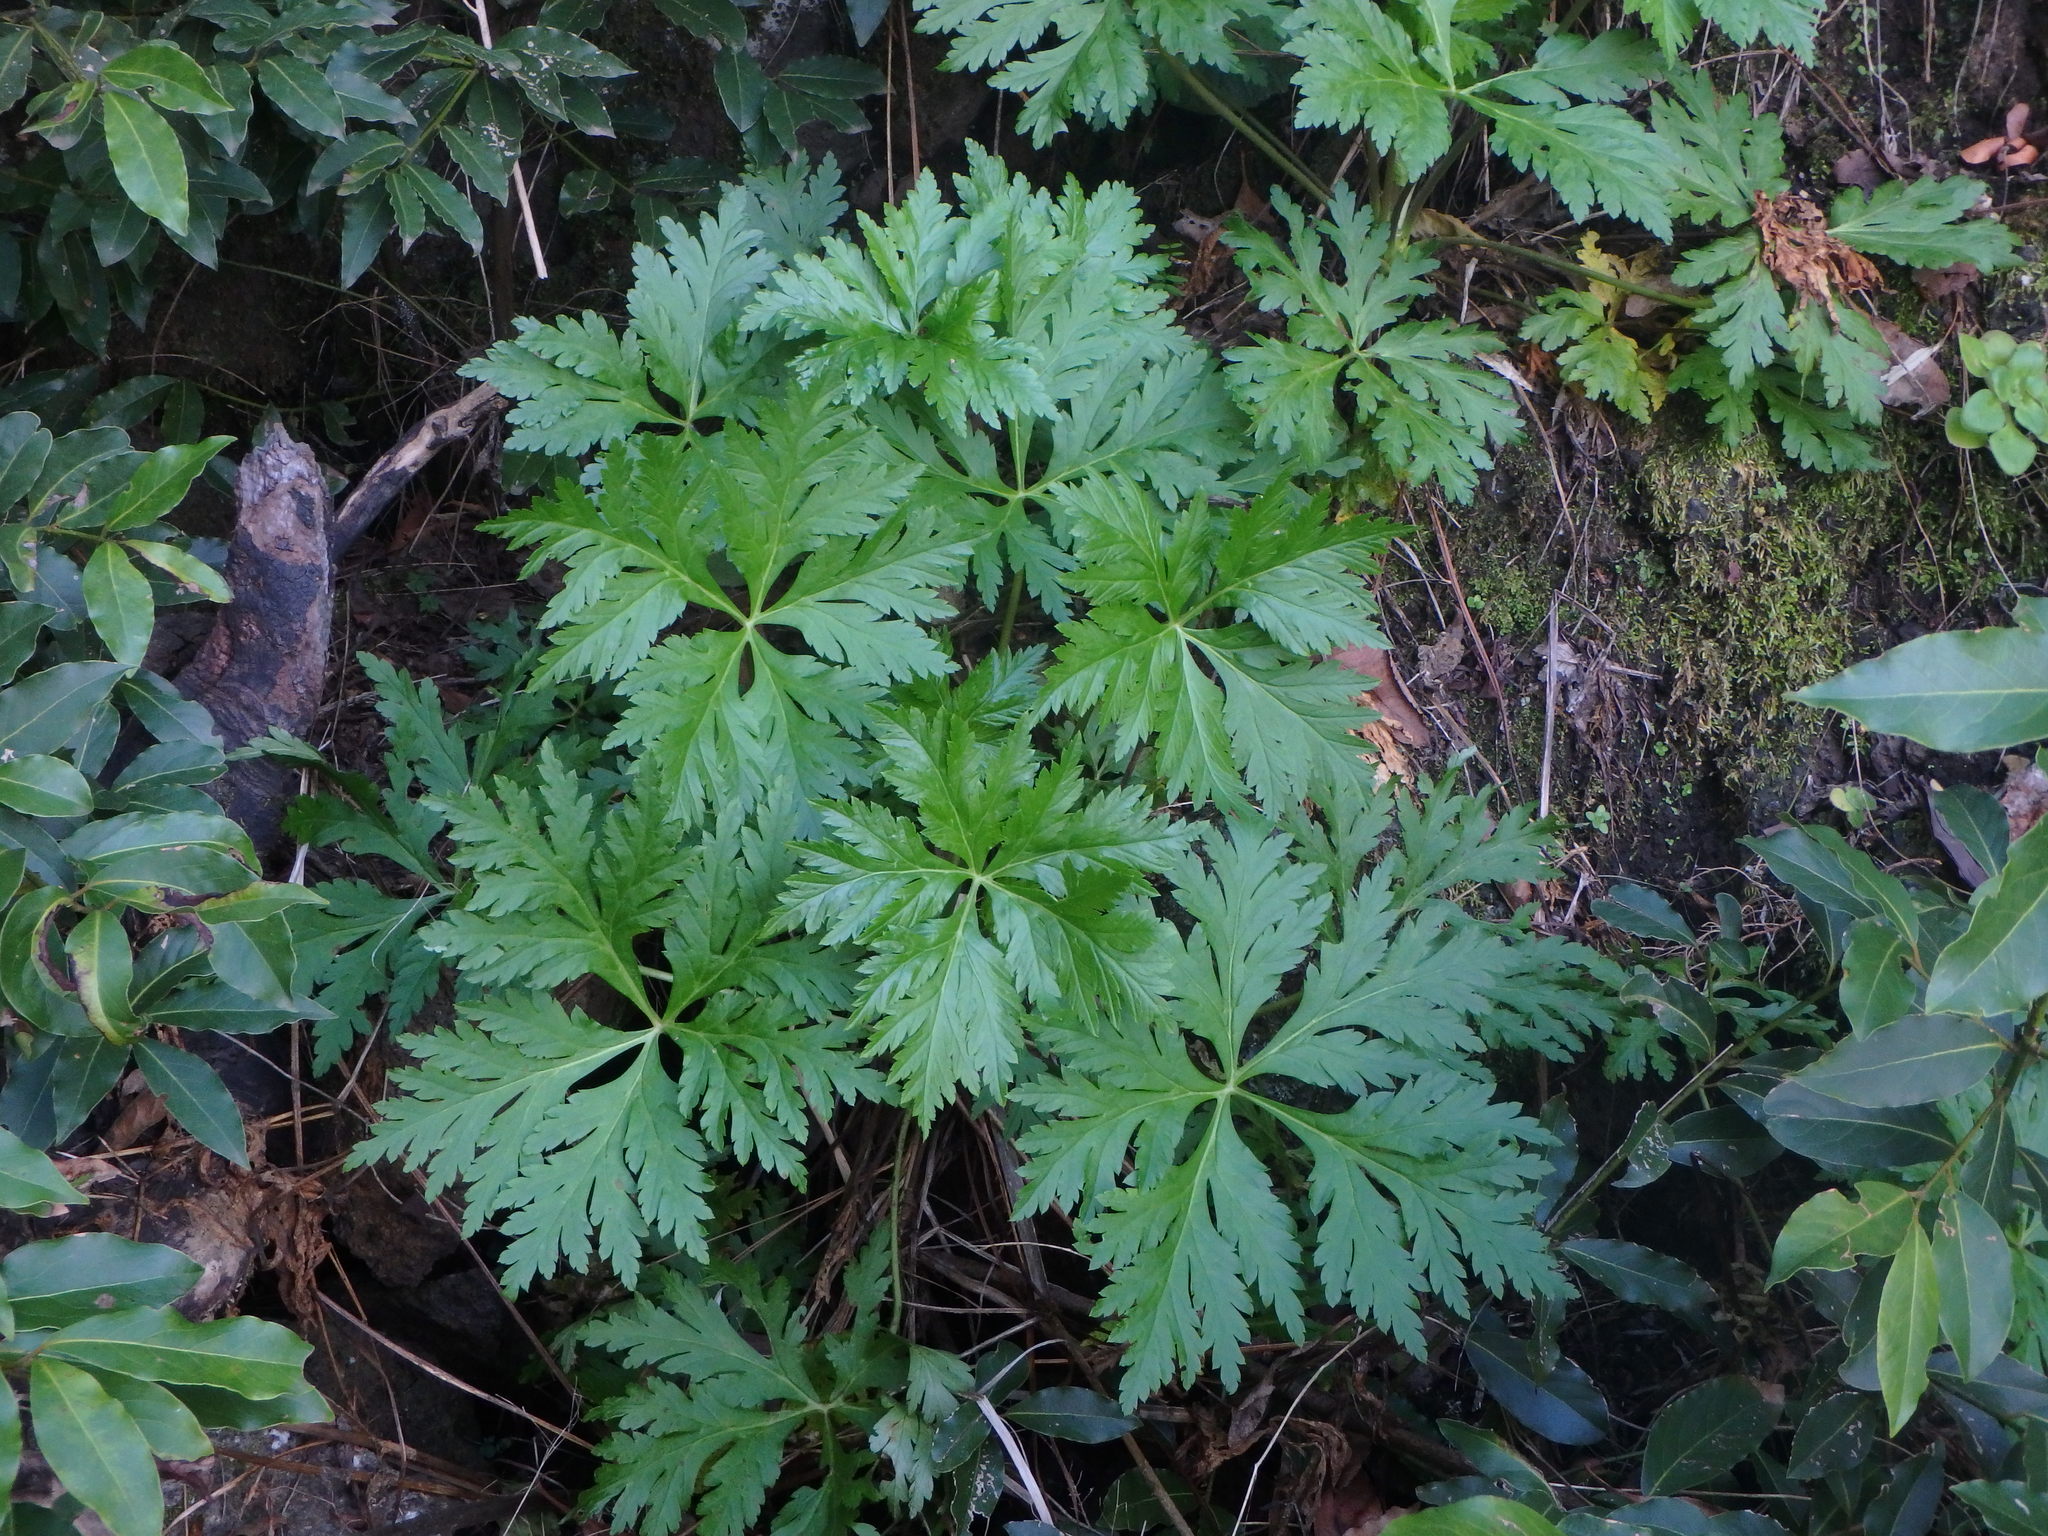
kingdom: Plantae
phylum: Tracheophyta
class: Magnoliopsida
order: Geraniales
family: Geraniaceae
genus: Geranium
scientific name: Geranium reuteri
